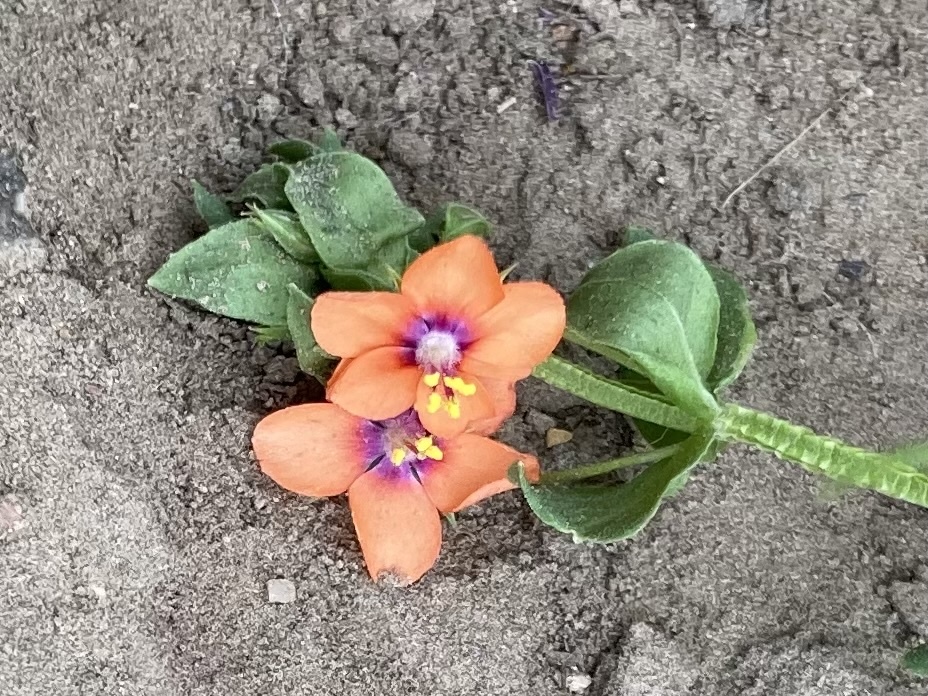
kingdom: Plantae
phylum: Tracheophyta
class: Magnoliopsida
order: Ericales
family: Primulaceae
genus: Lysimachia
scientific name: Lysimachia arvensis
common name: Scarlet pimpernel
